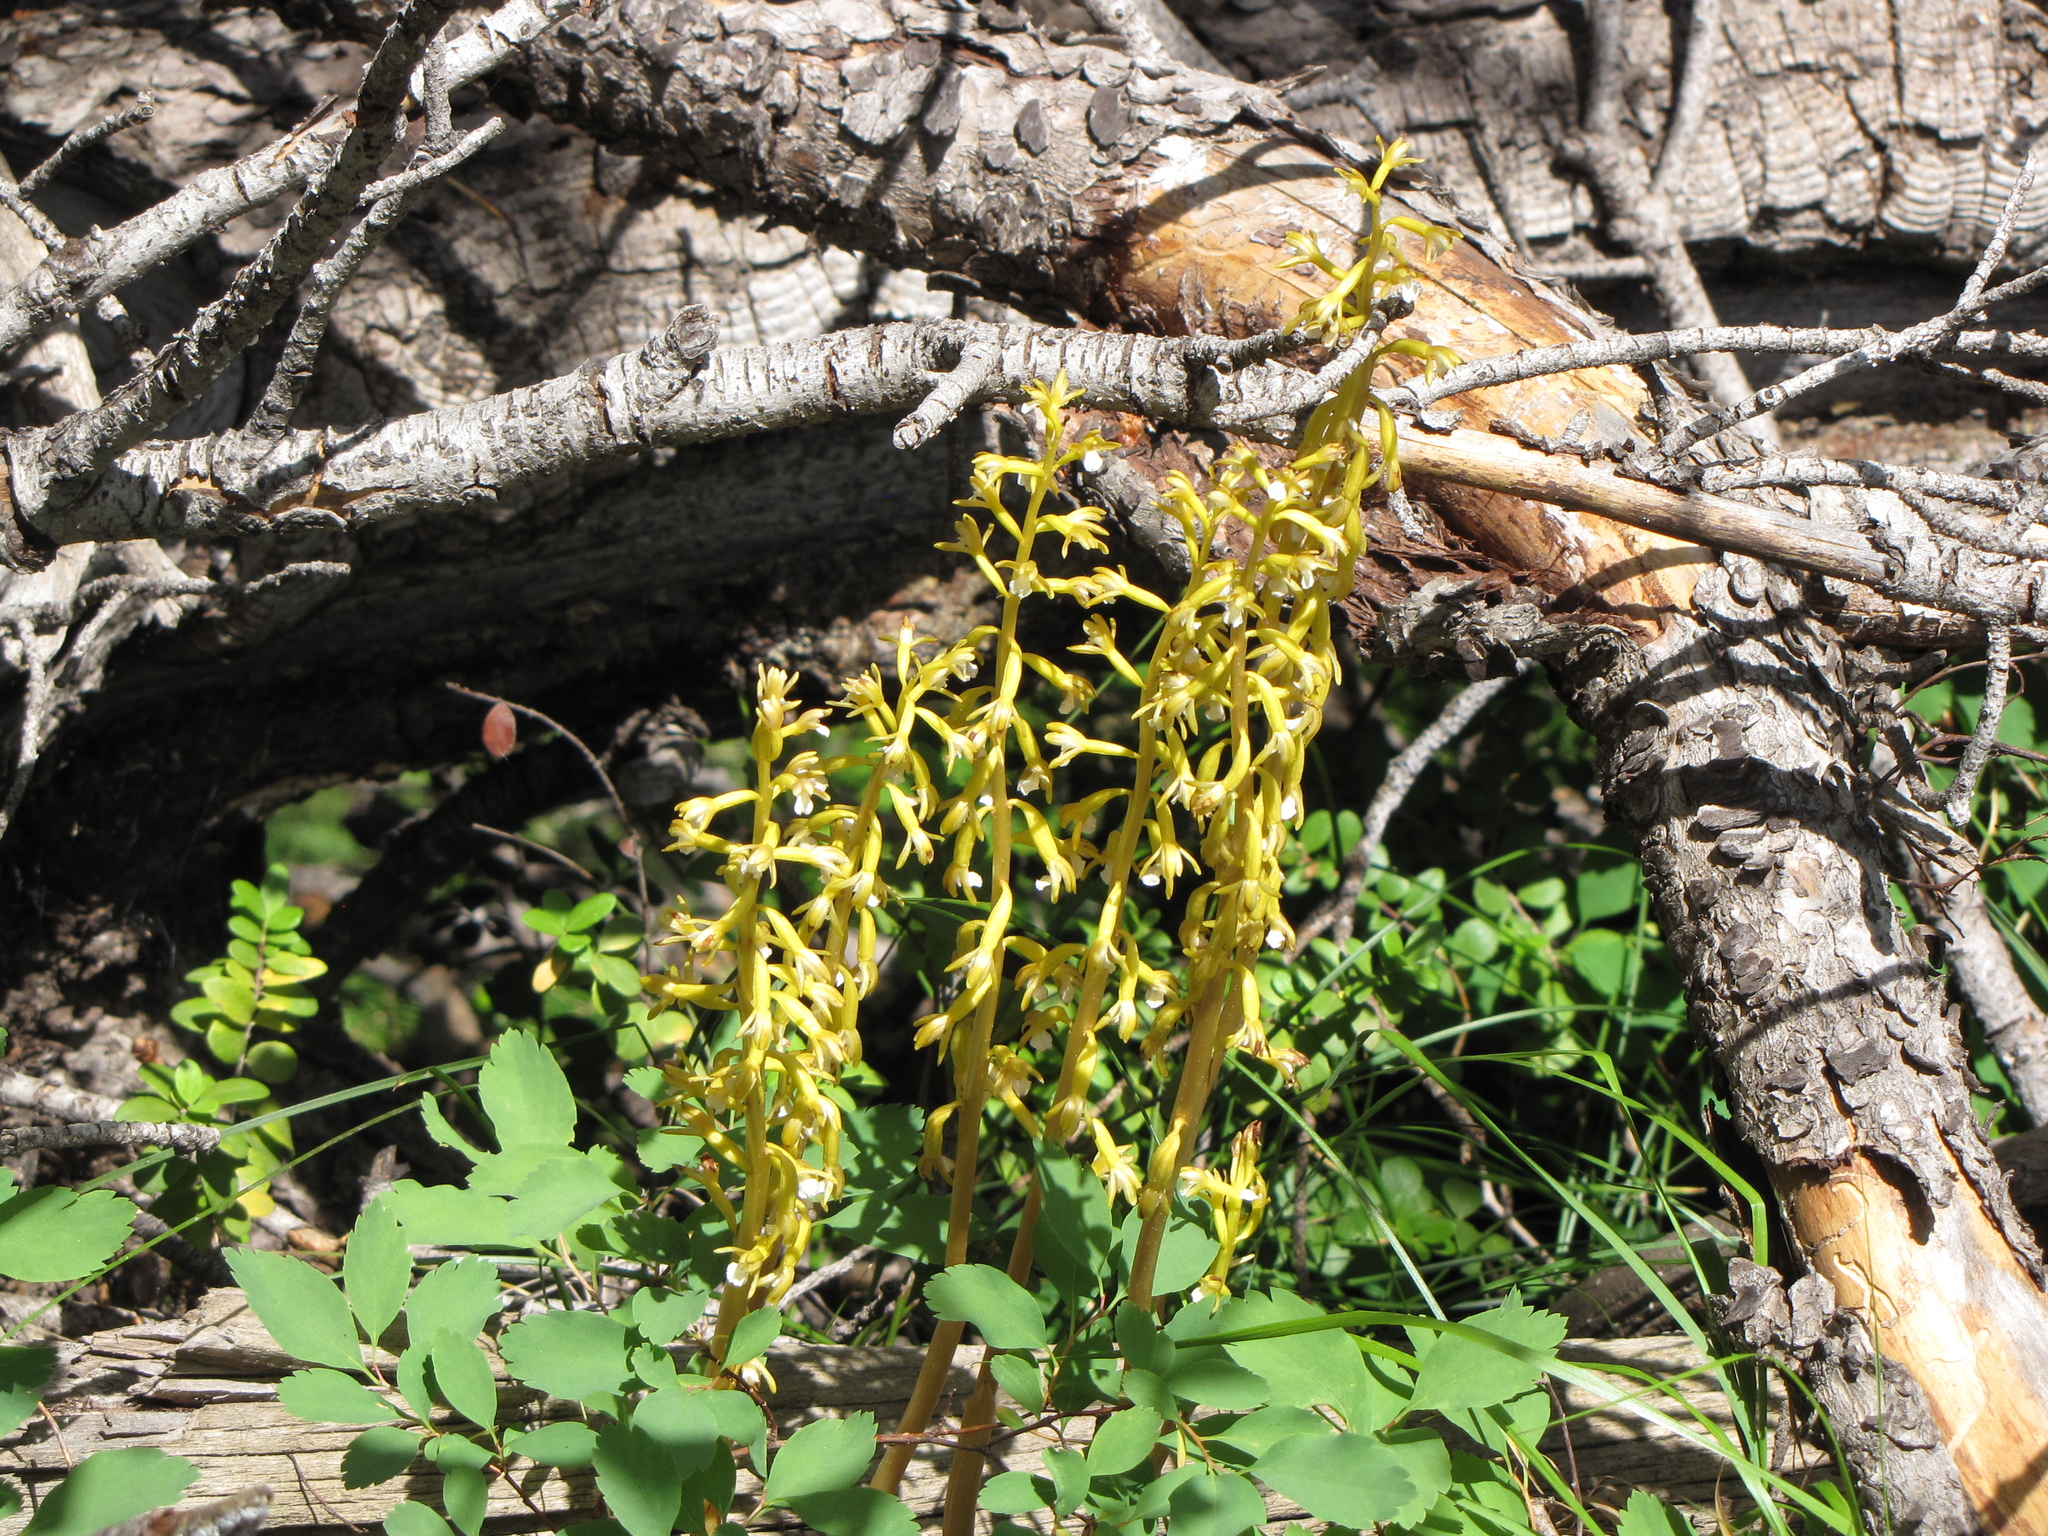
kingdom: Plantae
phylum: Tracheophyta
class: Liliopsida
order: Asparagales
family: Orchidaceae
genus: Corallorhiza
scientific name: Corallorhiza maculata
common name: Spotted coralroot
